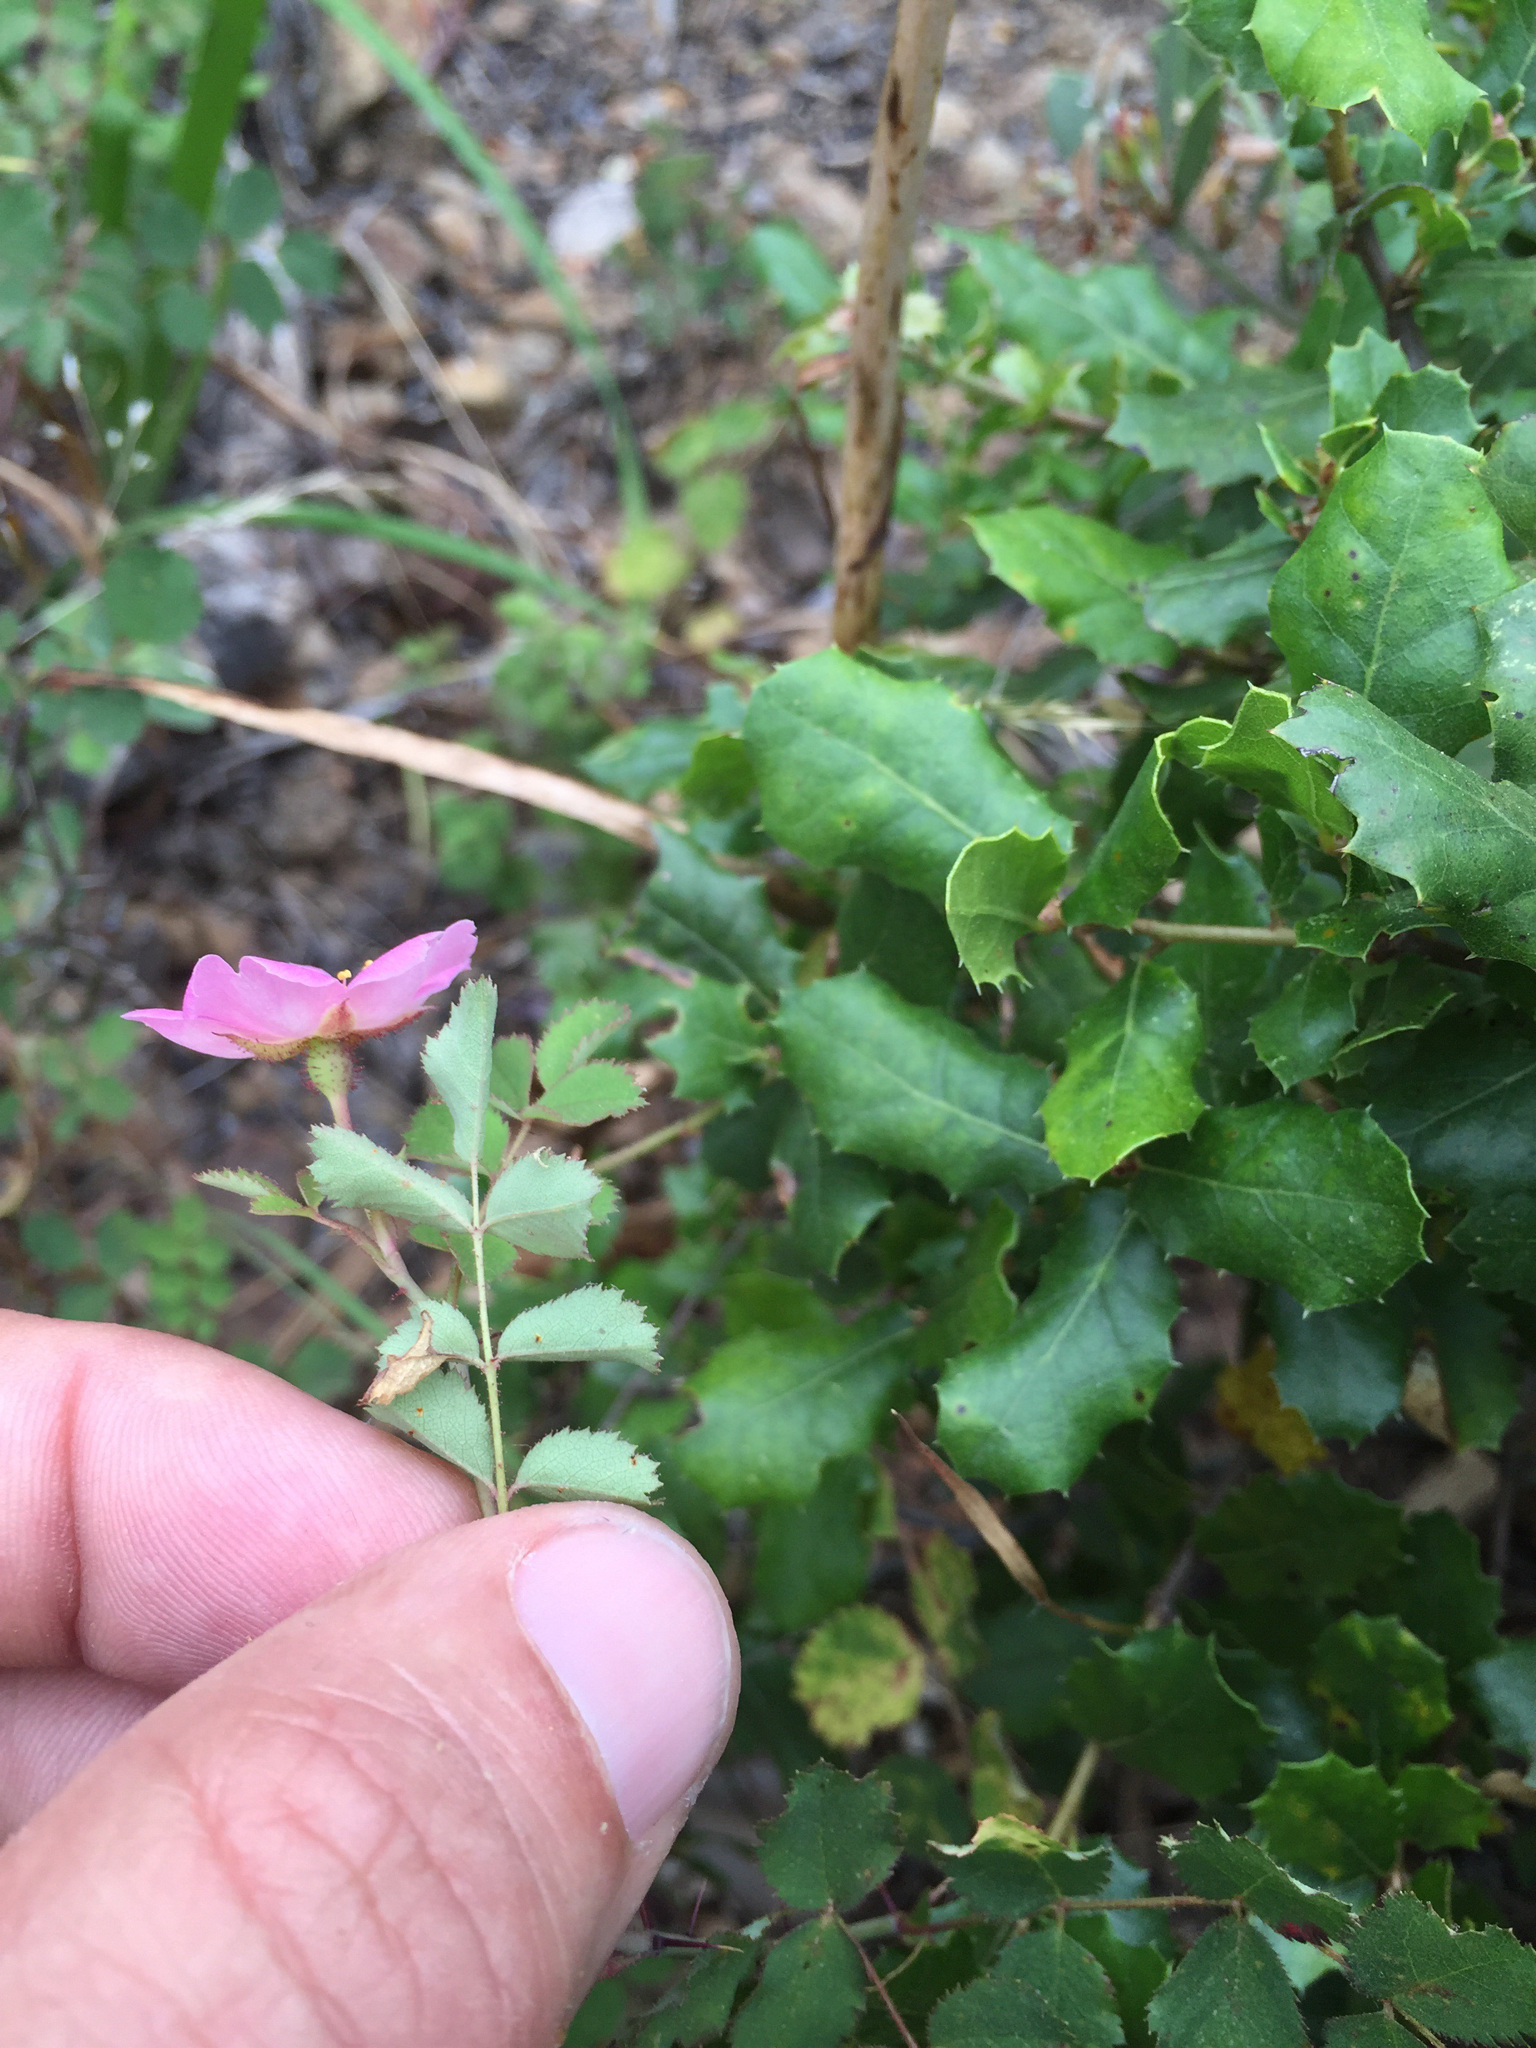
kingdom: Plantae
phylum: Tracheophyta
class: Magnoliopsida
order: Rosales
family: Rosaceae
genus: Rosa
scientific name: Rosa spithamea
